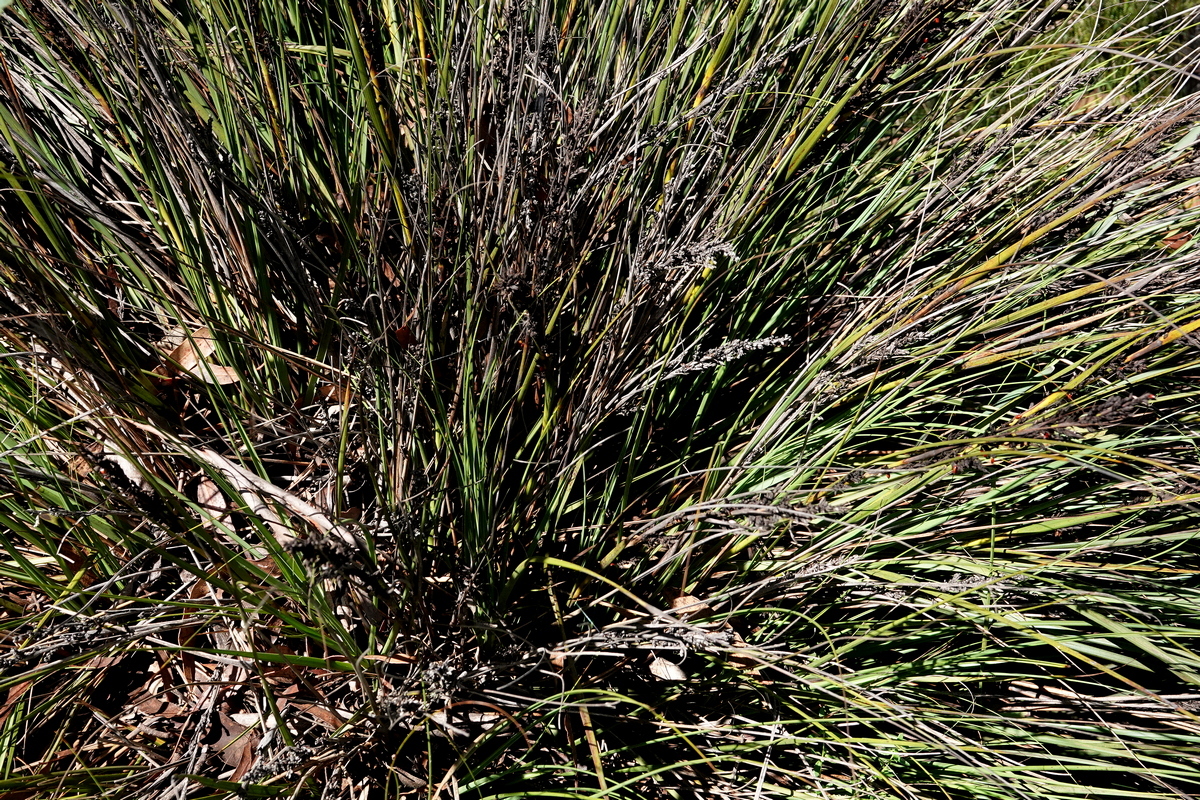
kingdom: Plantae
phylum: Tracheophyta
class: Liliopsida
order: Poales
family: Cyperaceae
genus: Gahnia
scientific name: Gahnia subaequiglumis
